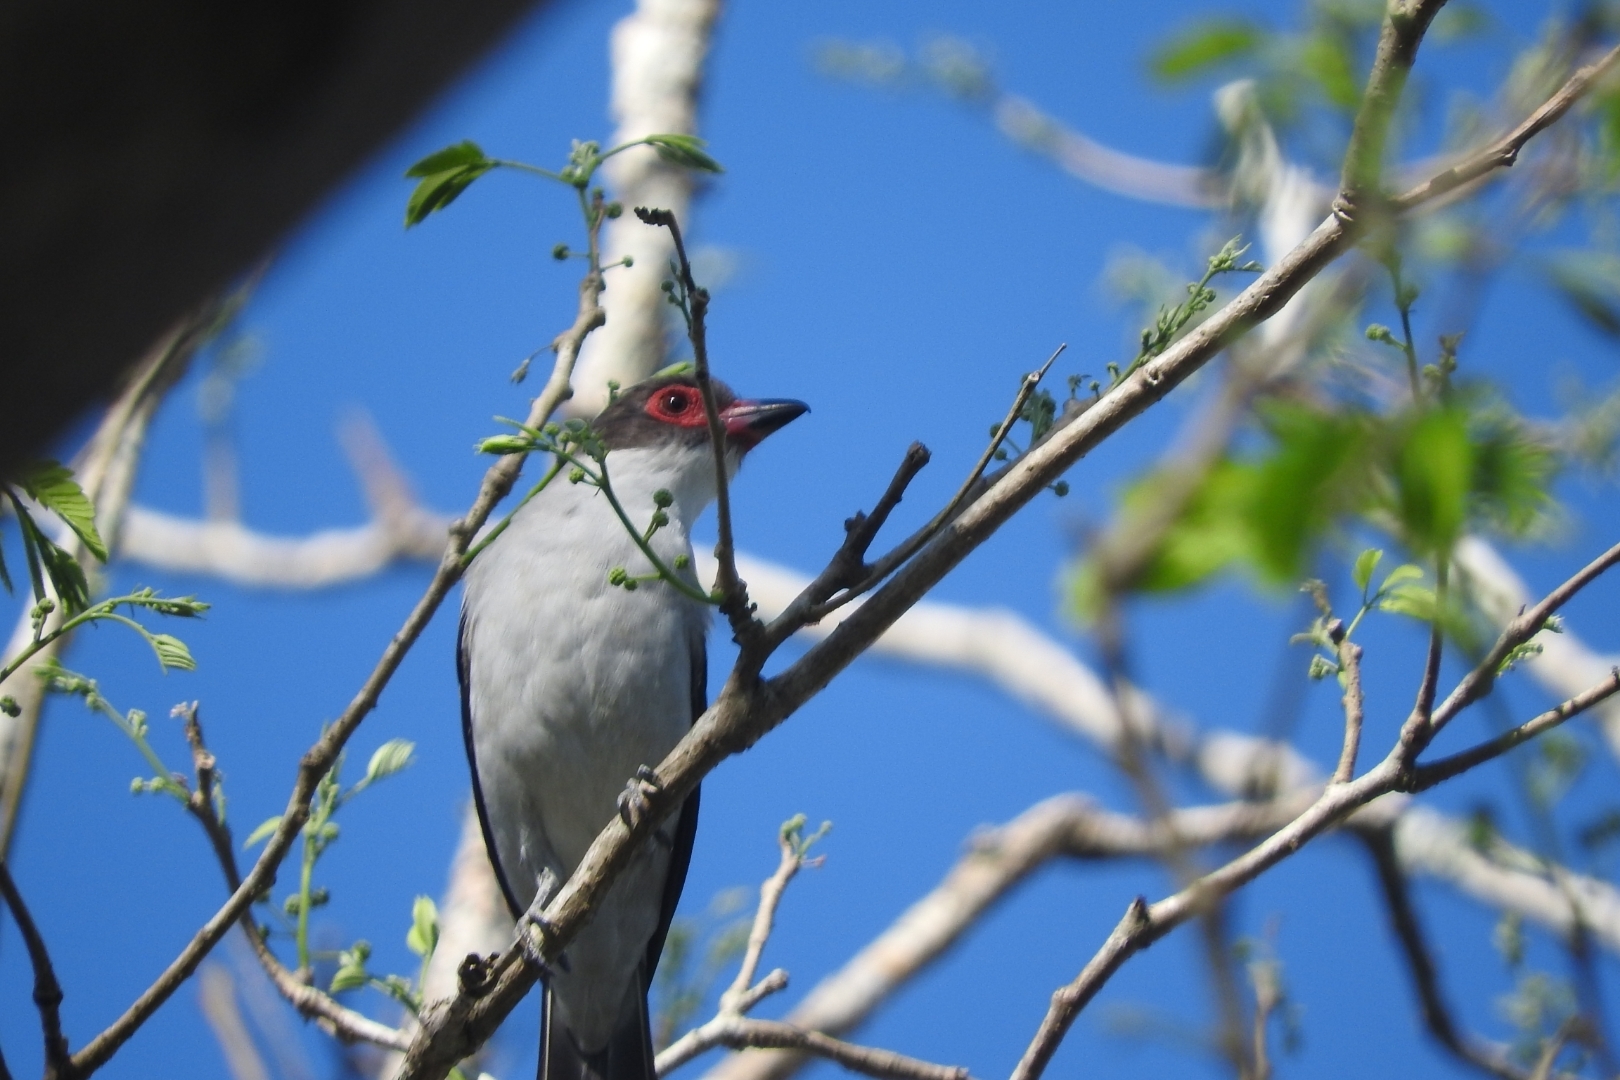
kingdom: Animalia
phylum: Chordata
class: Aves
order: Passeriformes
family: Cotingidae
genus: Tityra
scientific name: Tityra semifasciata
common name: Masked tityra
